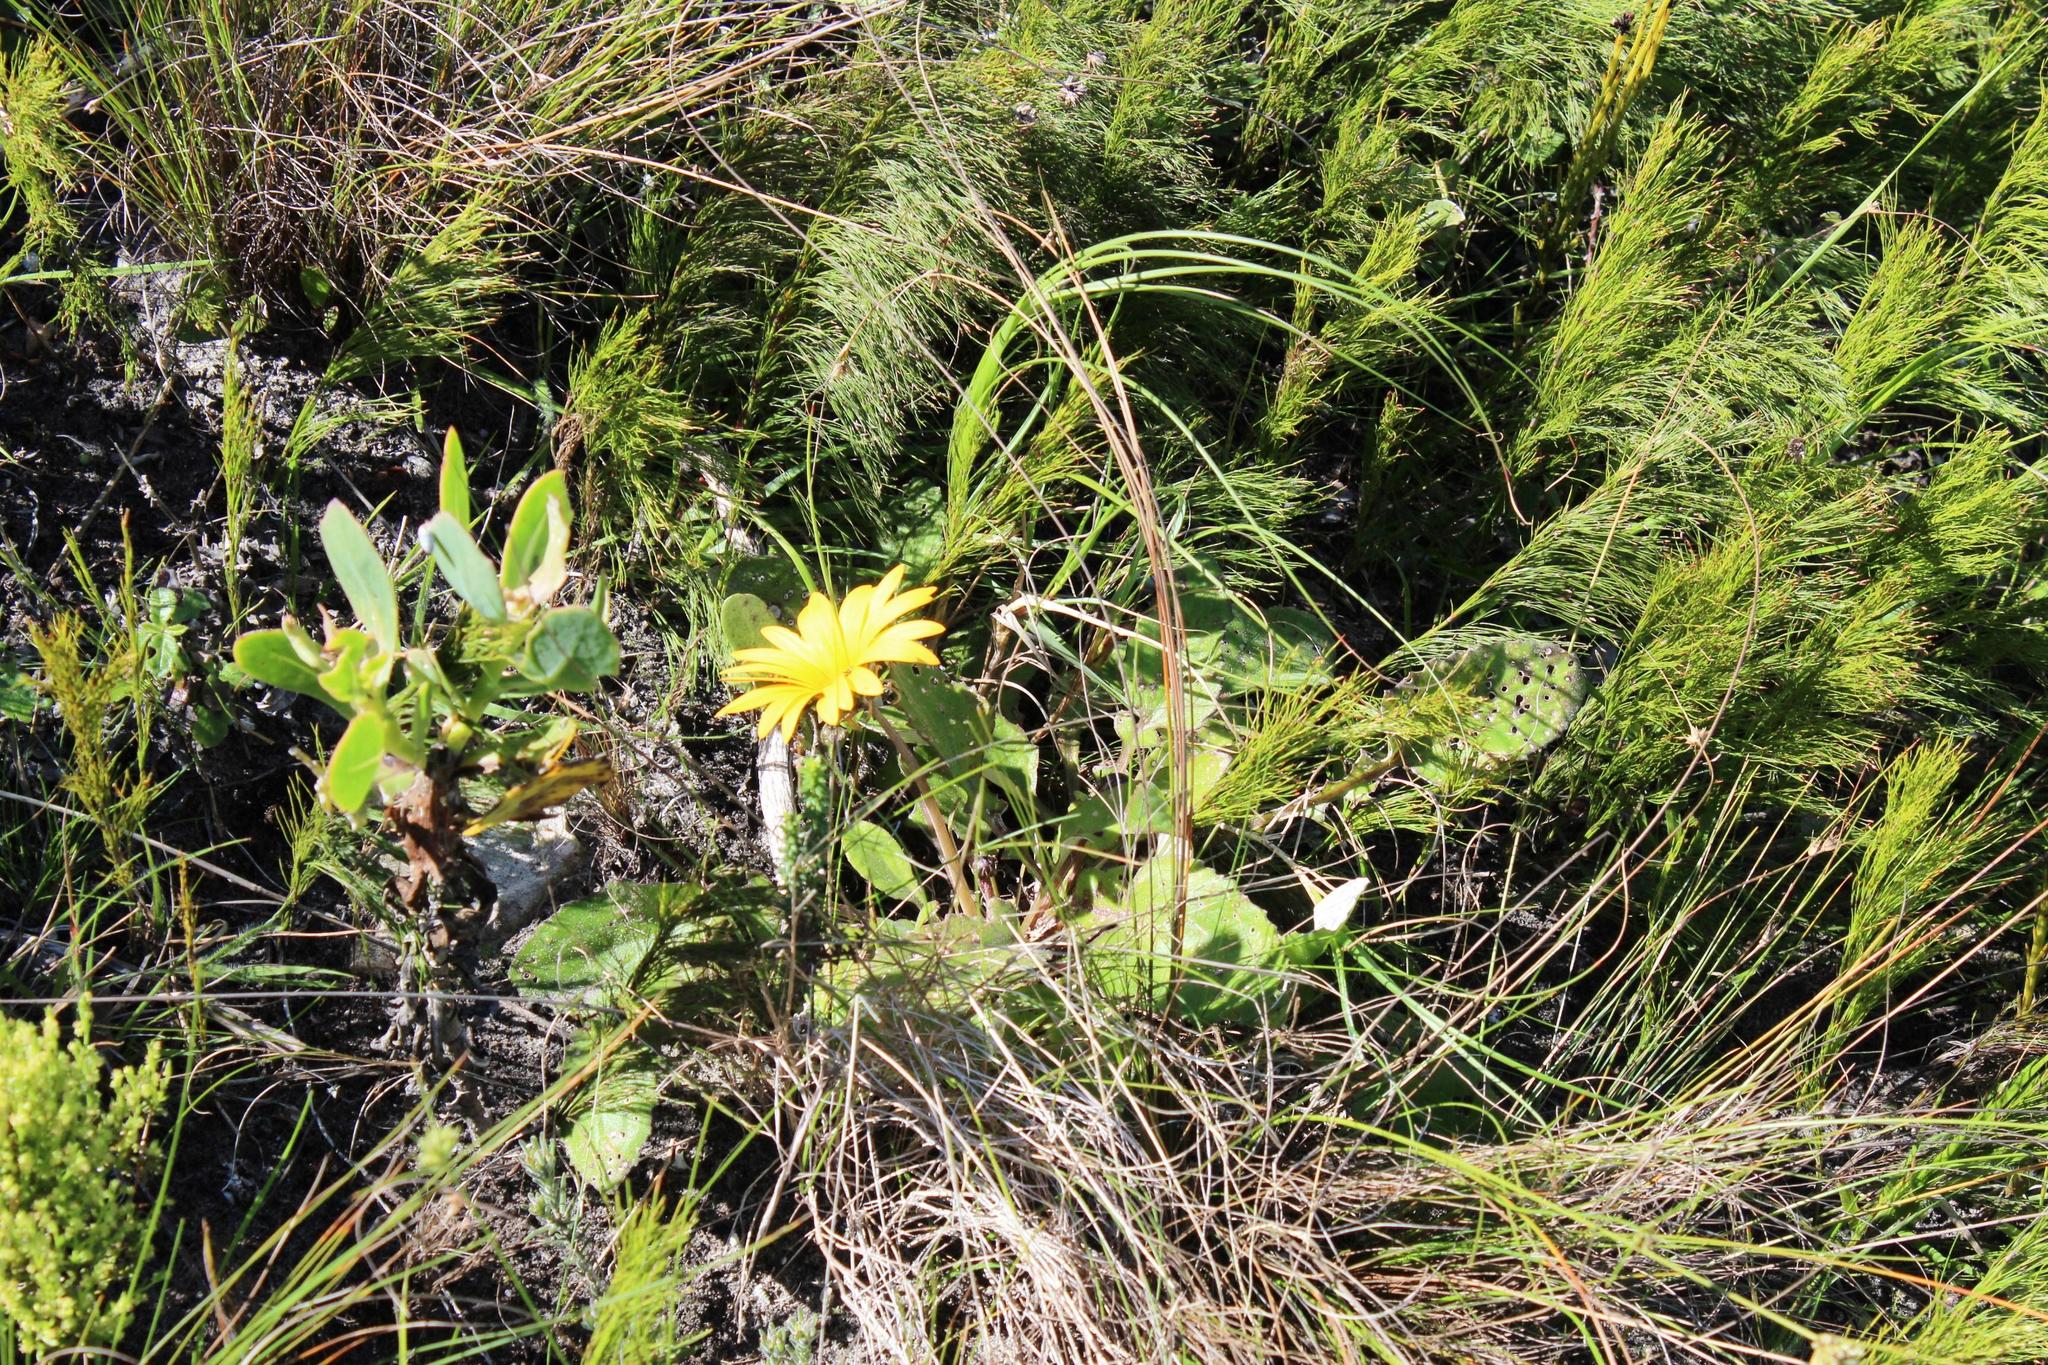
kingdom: Plantae
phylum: Tracheophyta
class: Magnoliopsida
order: Asterales
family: Asteraceae
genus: Arctotis
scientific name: Arctotis acaulis
